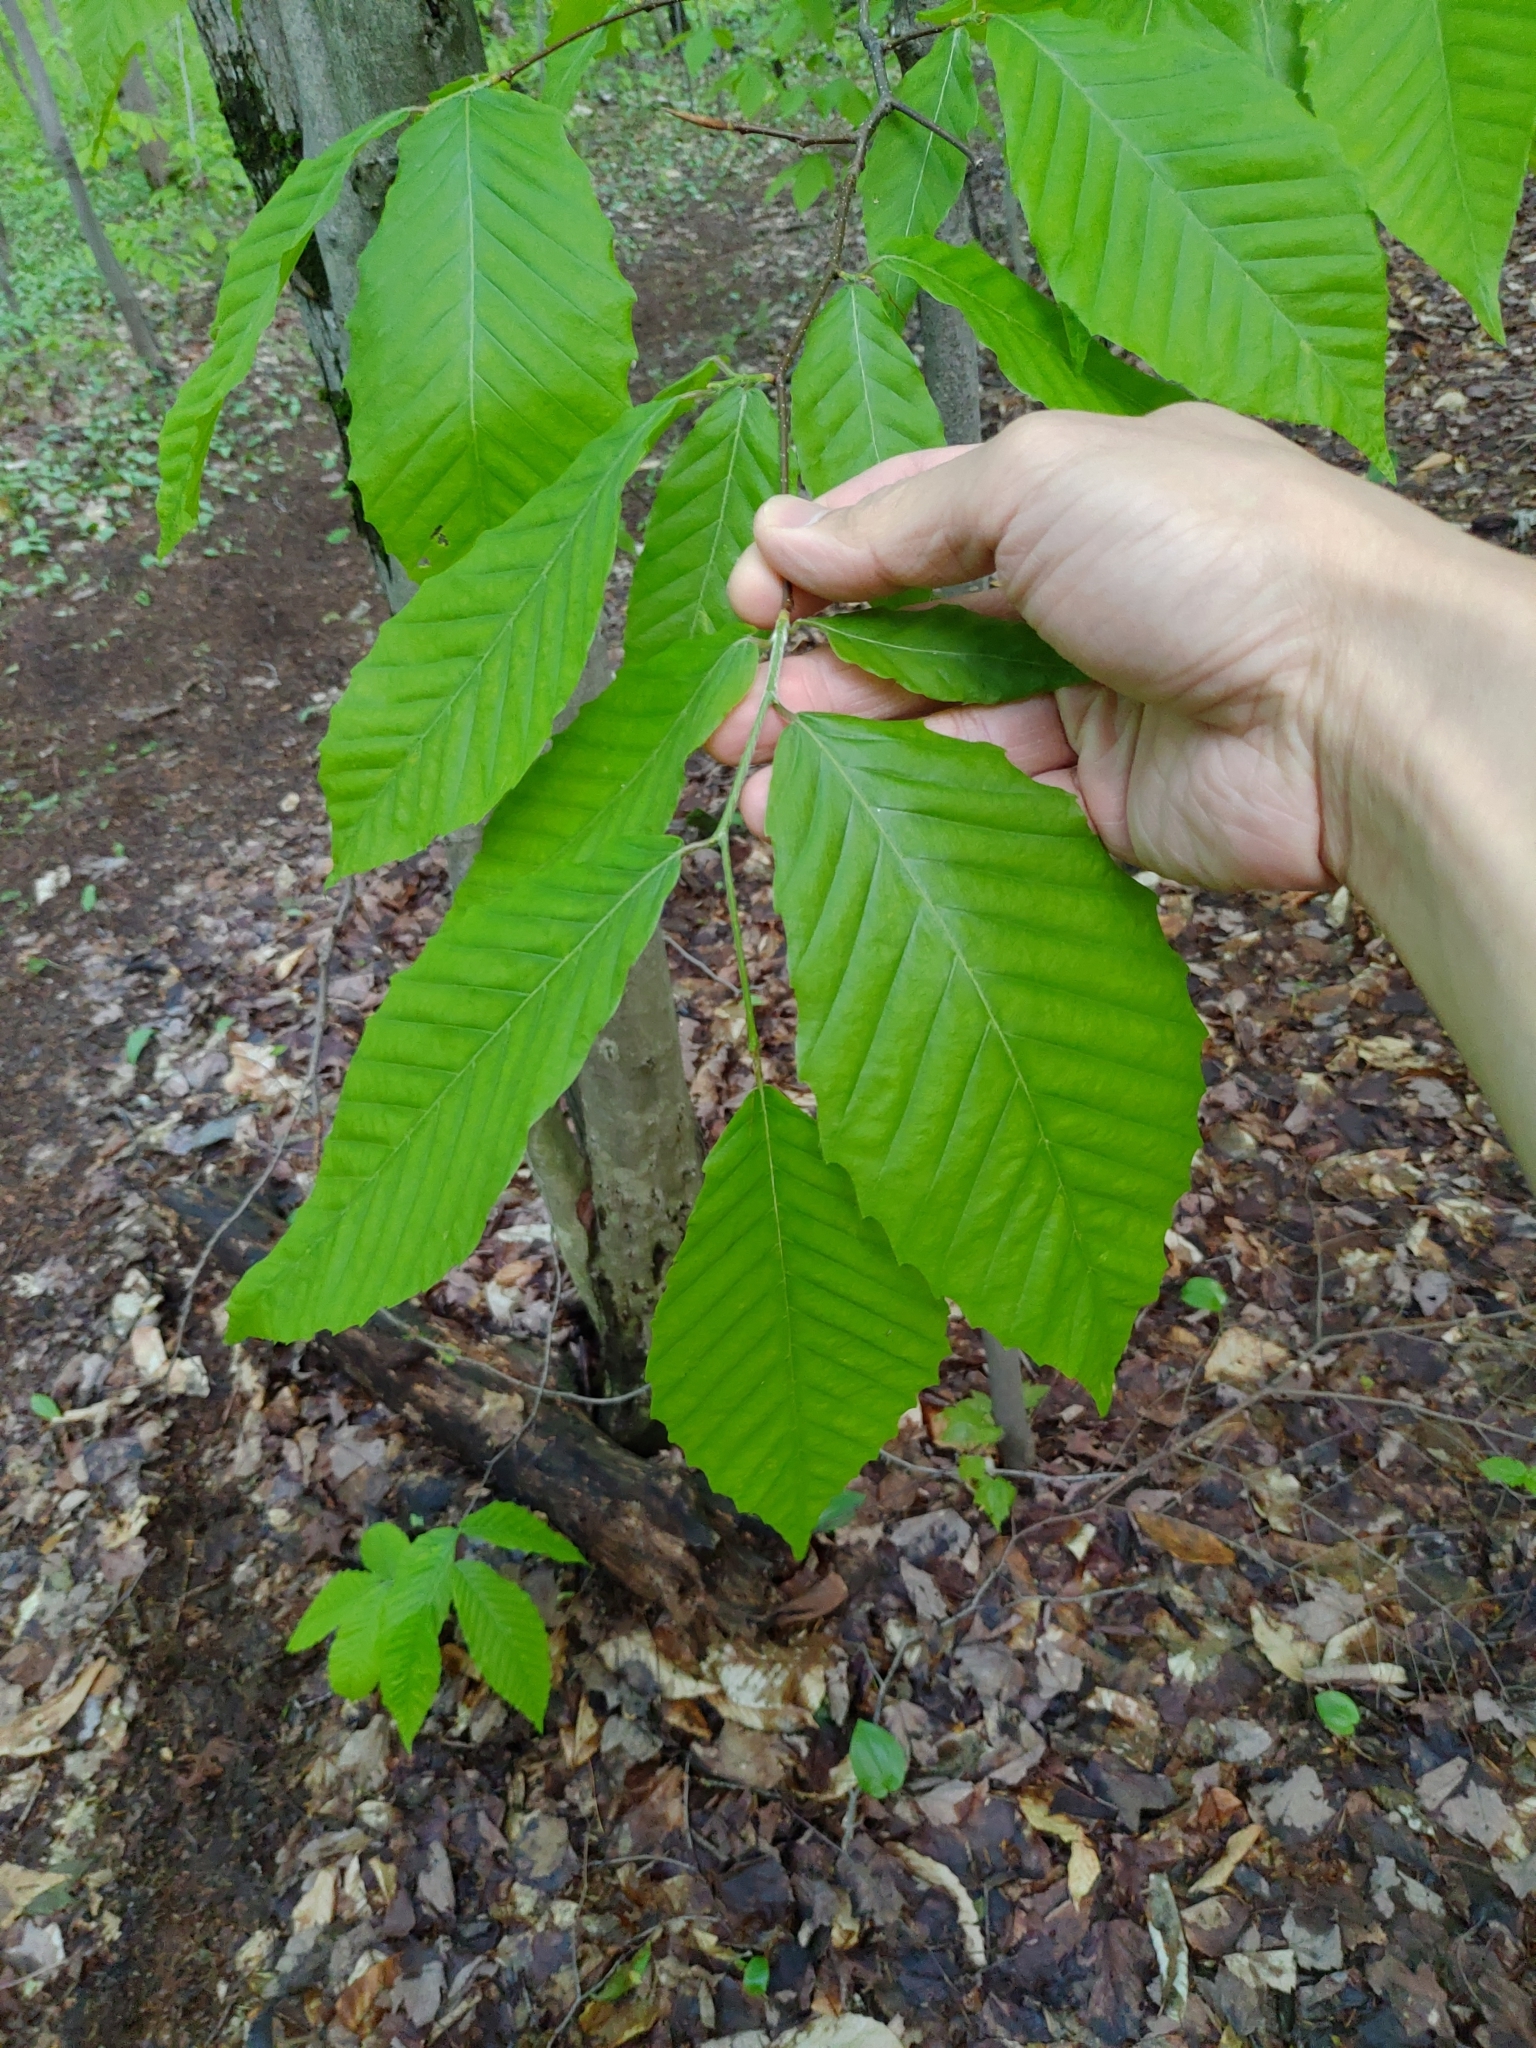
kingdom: Plantae
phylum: Tracheophyta
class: Magnoliopsida
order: Fagales
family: Fagaceae
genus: Fagus
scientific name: Fagus grandifolia
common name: American beech
